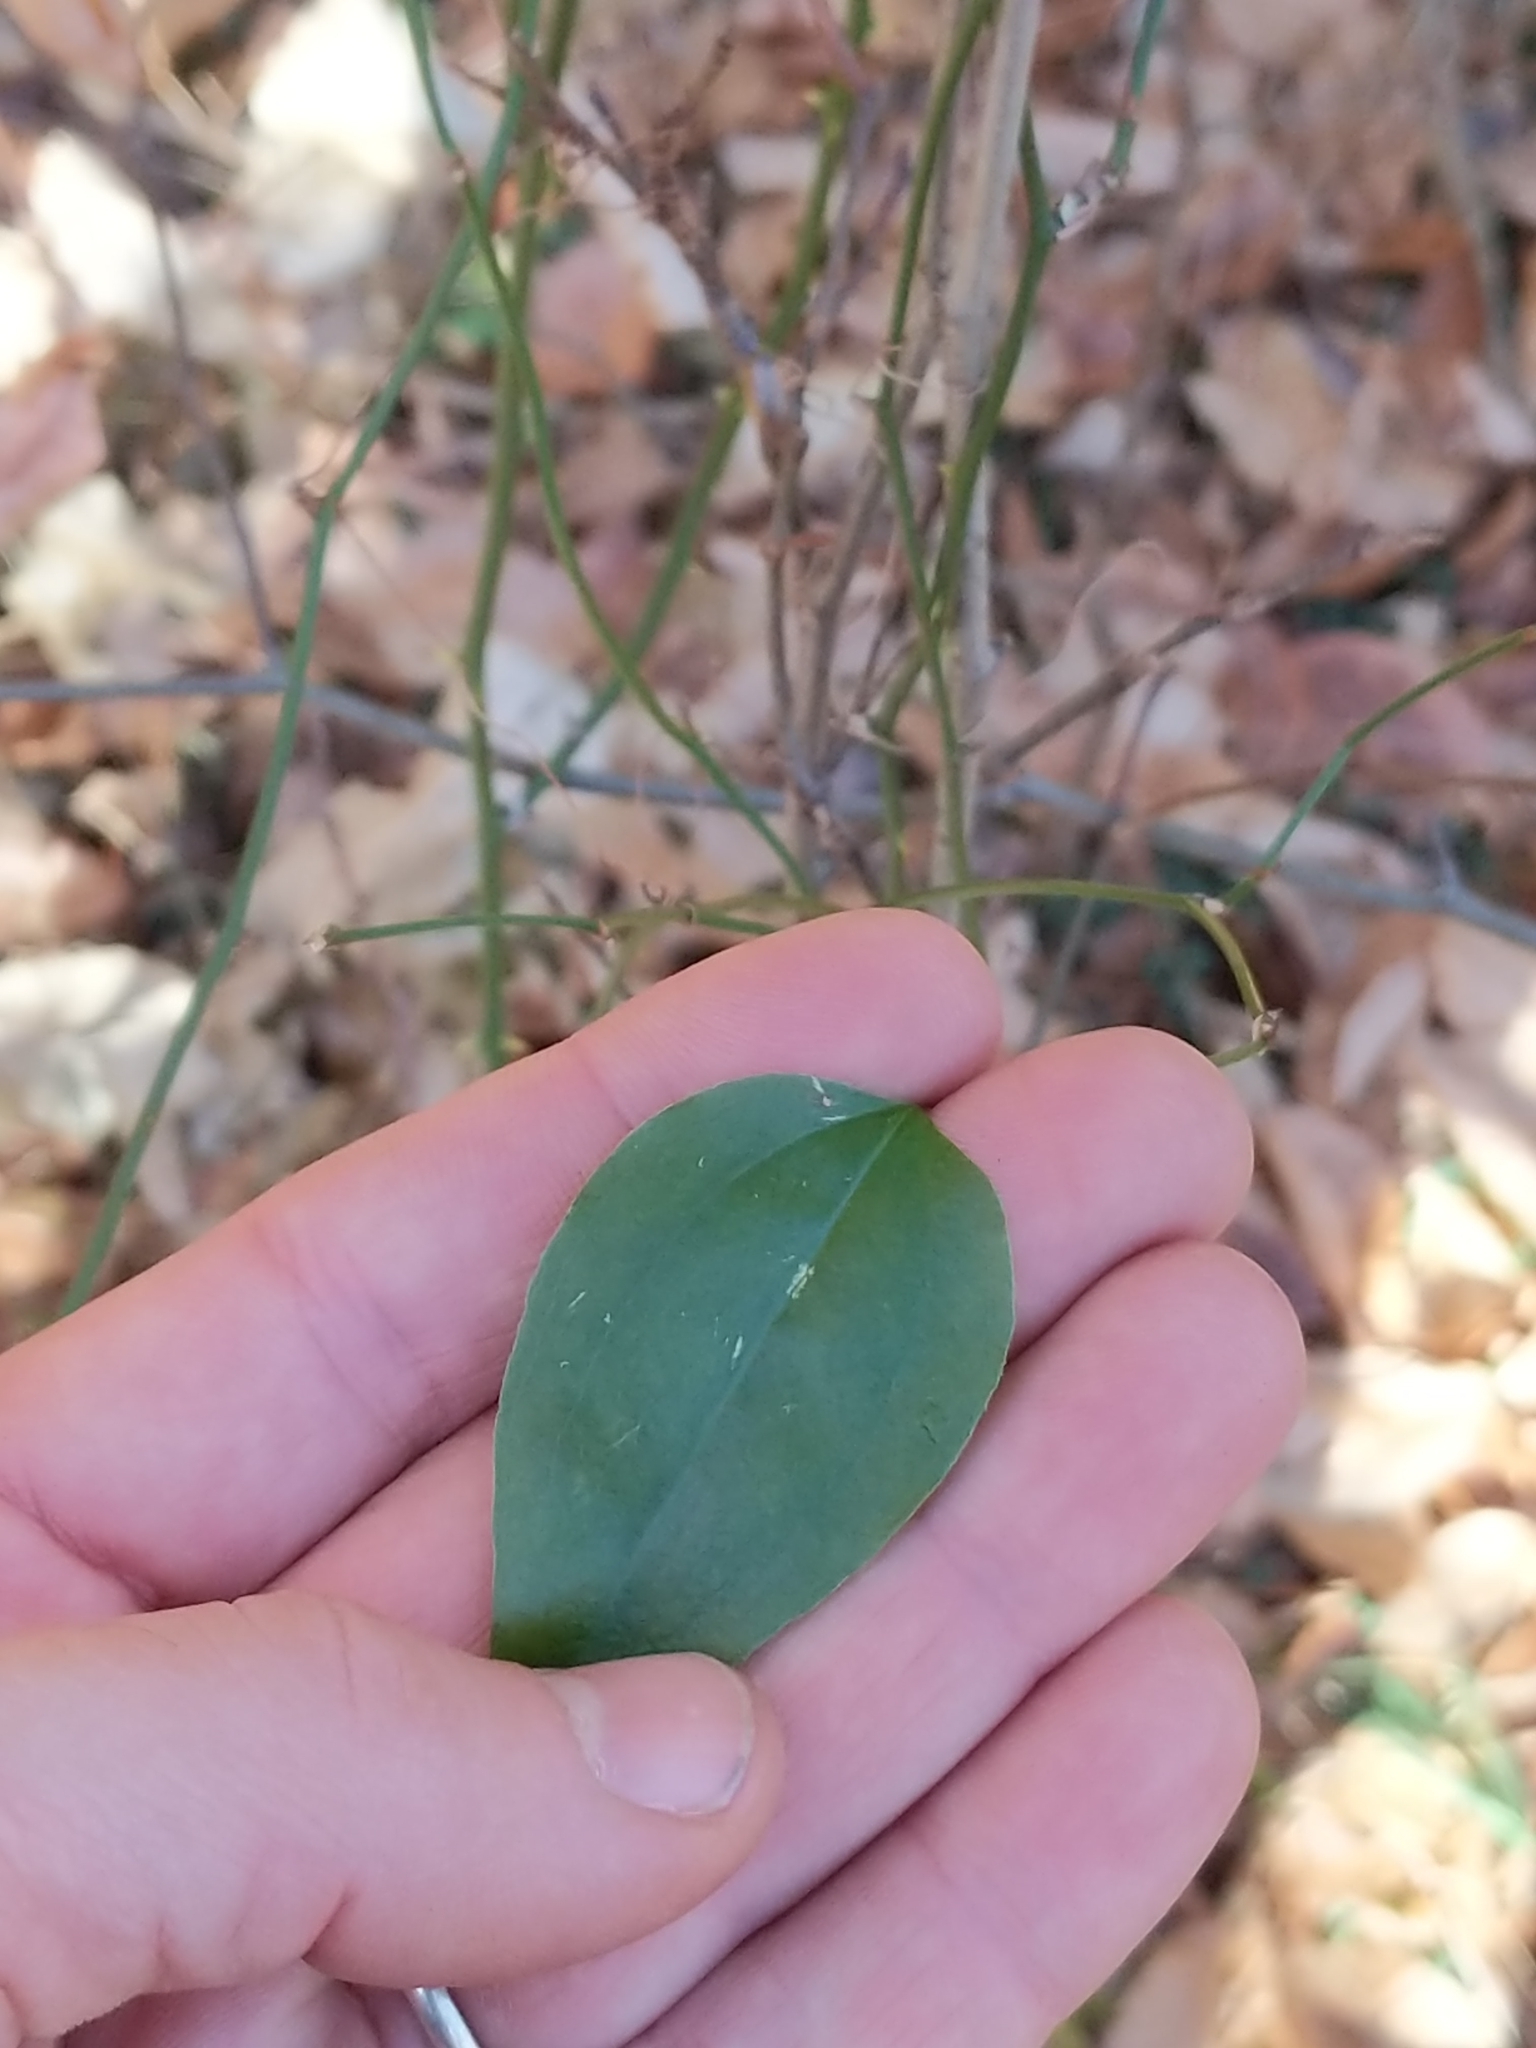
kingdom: Plantae
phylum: Tracheophyta
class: Liliopsida
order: Liliales
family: Smilacaceae
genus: Smilax
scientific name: Smilax rotundifolia
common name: Bullbriar
